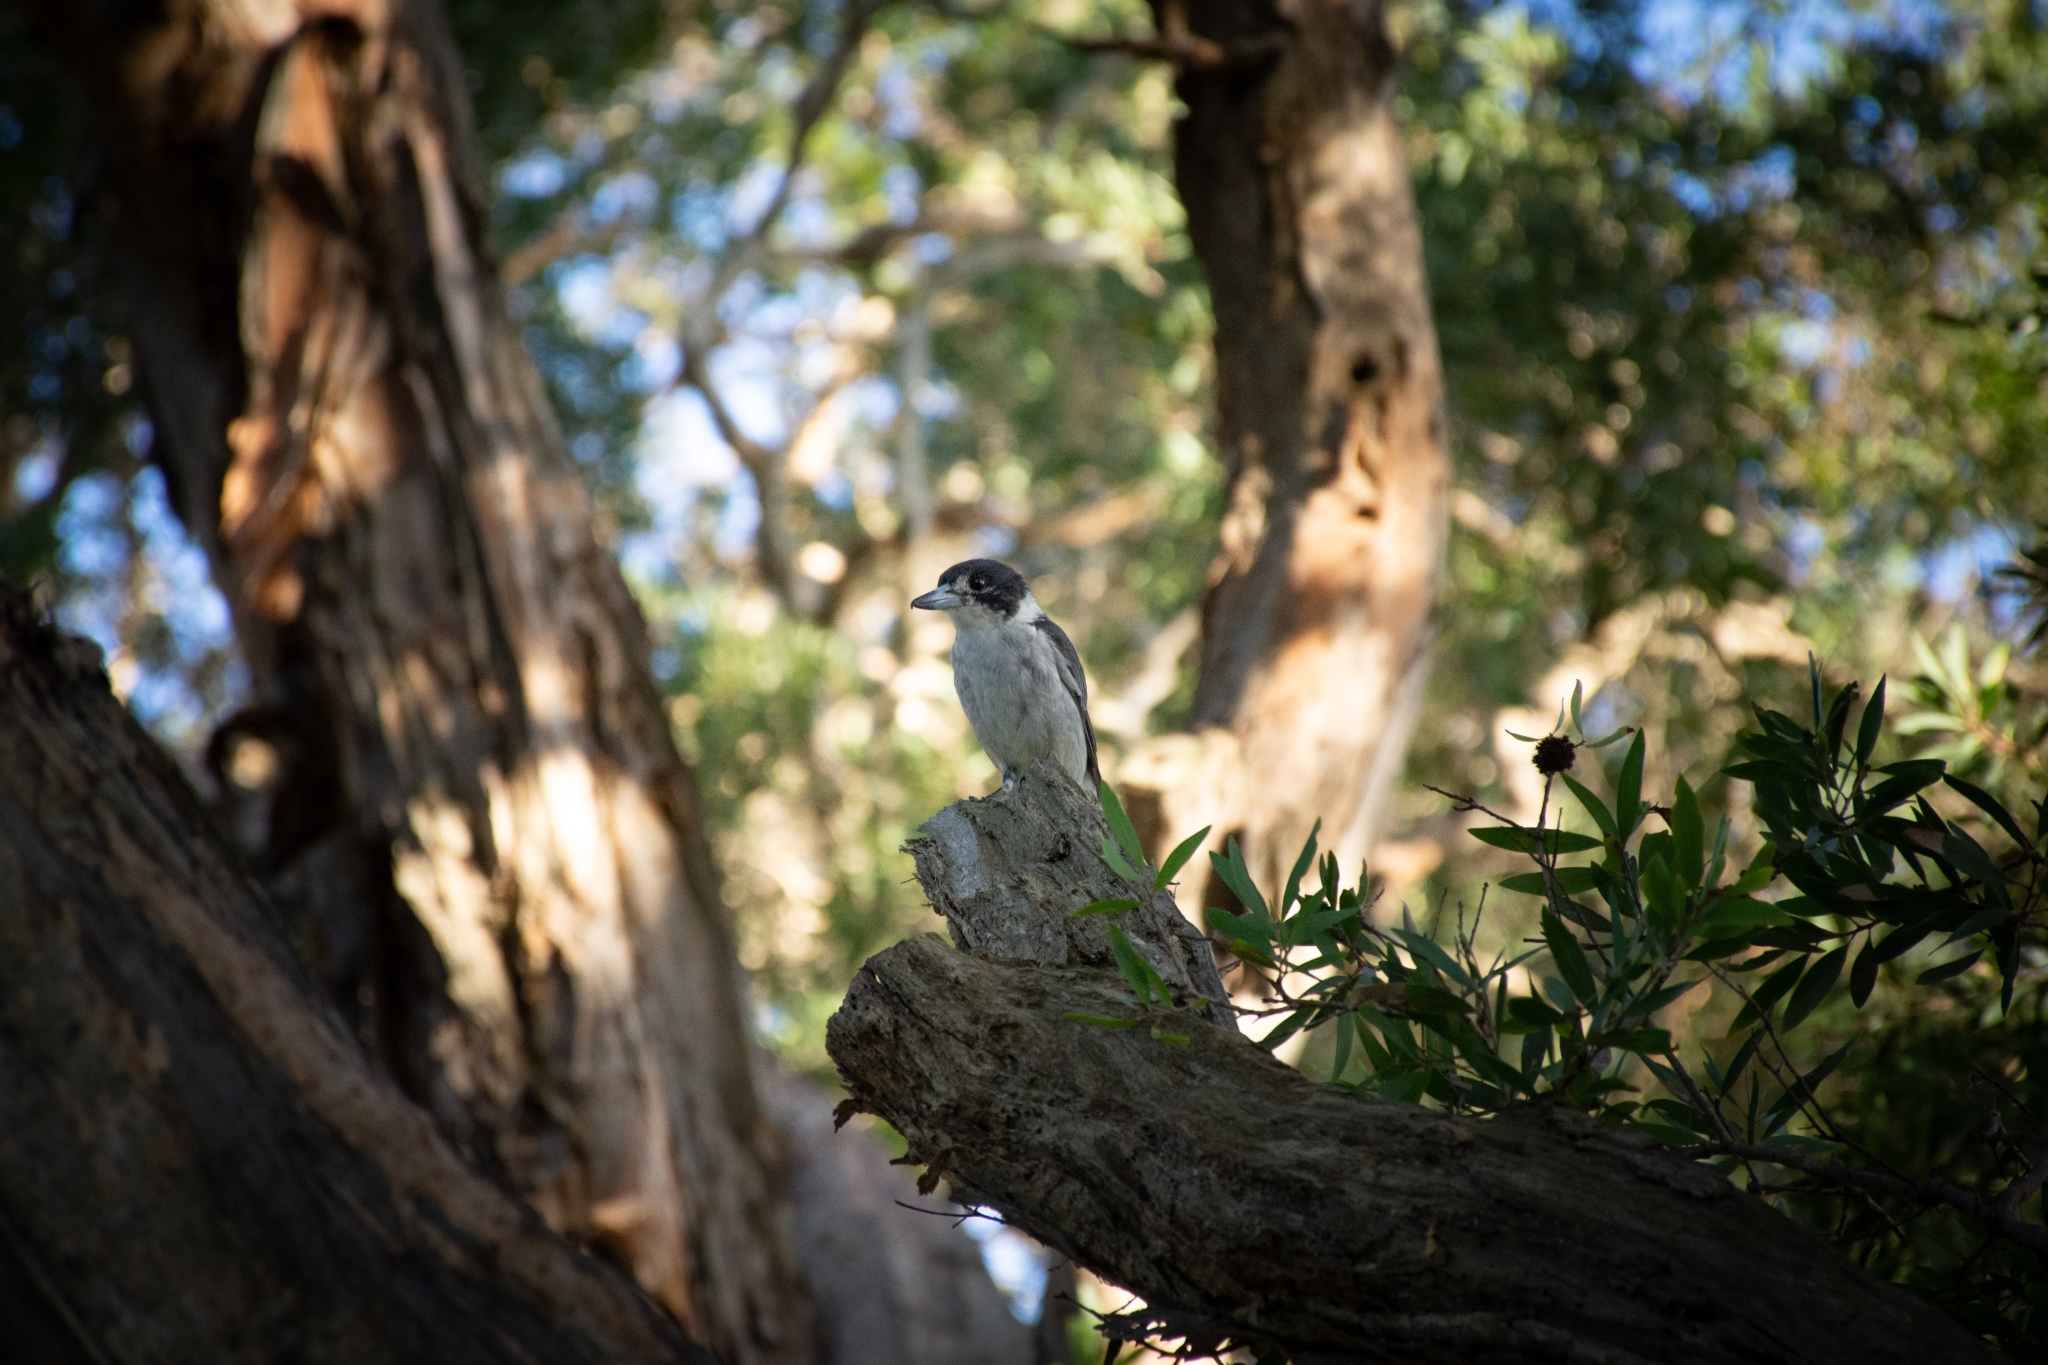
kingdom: Animalia
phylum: Chordata
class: Aves
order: Passeriformes
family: Cracticidae
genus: Cracticus
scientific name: Cracticus torquatus
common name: Grey butcherbird
